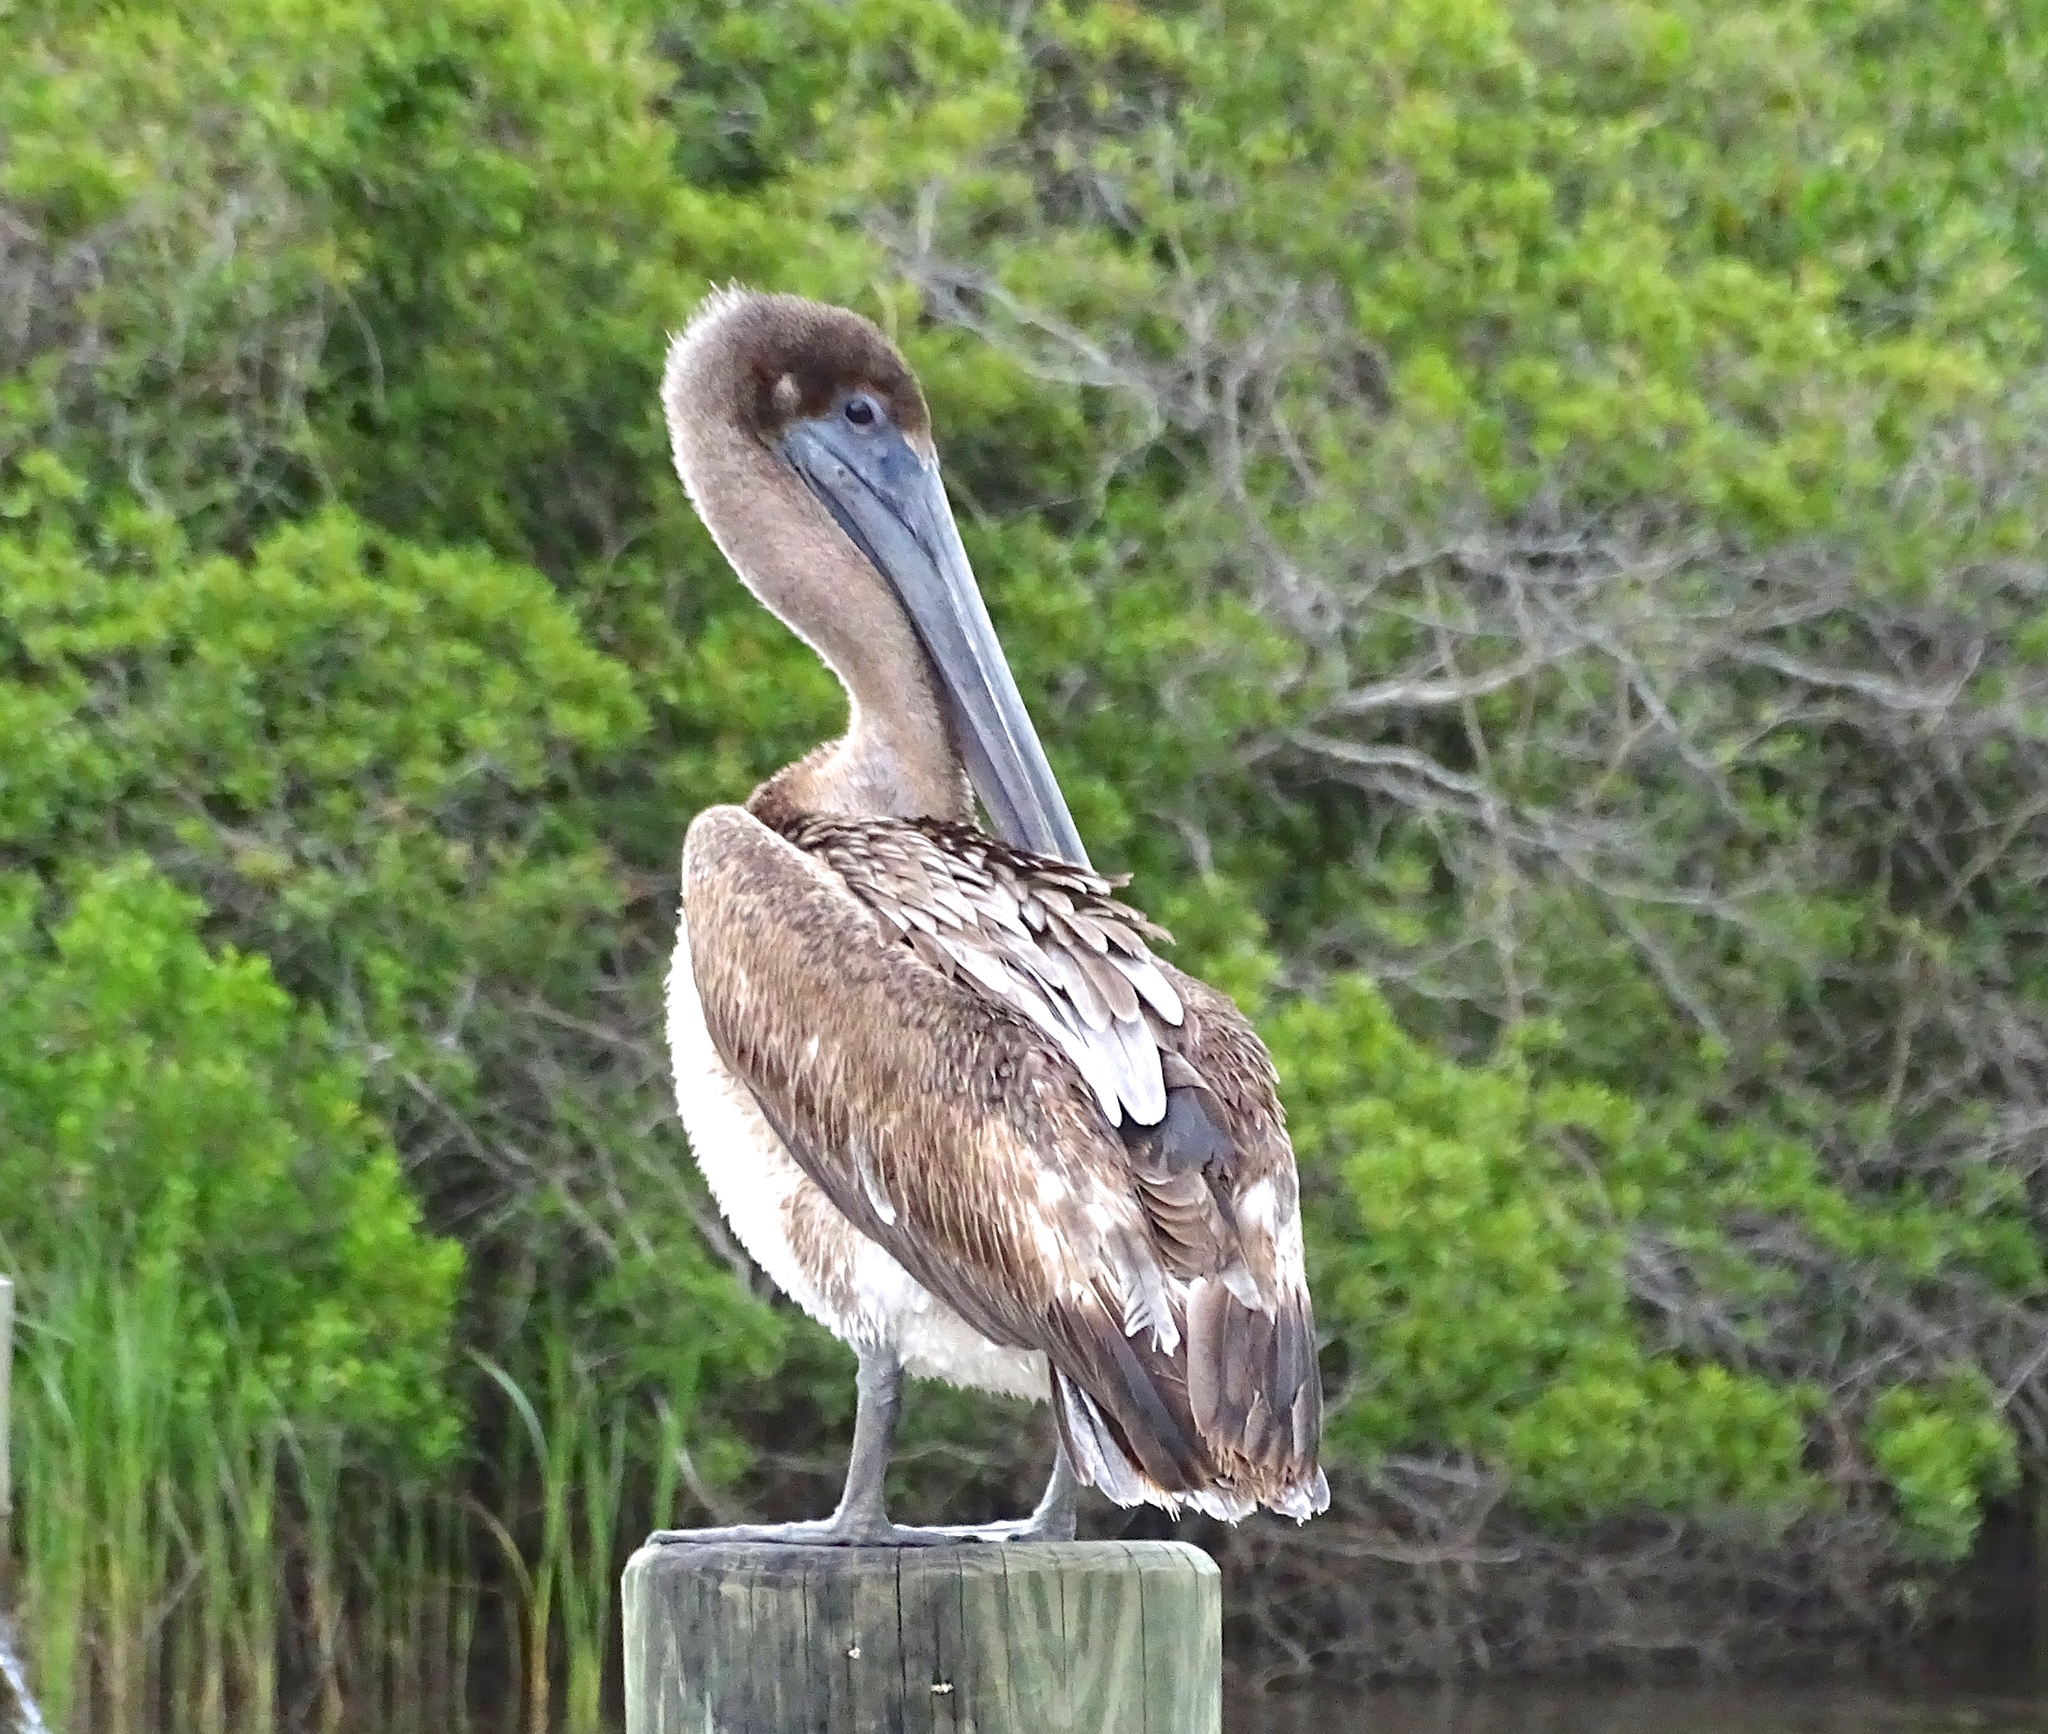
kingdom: Animalia
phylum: Chordata
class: Aves
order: Pelecaniformes
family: Pelecanidae
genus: Pelecanus
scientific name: Pelecanus occidentalis
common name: Brown pelican
